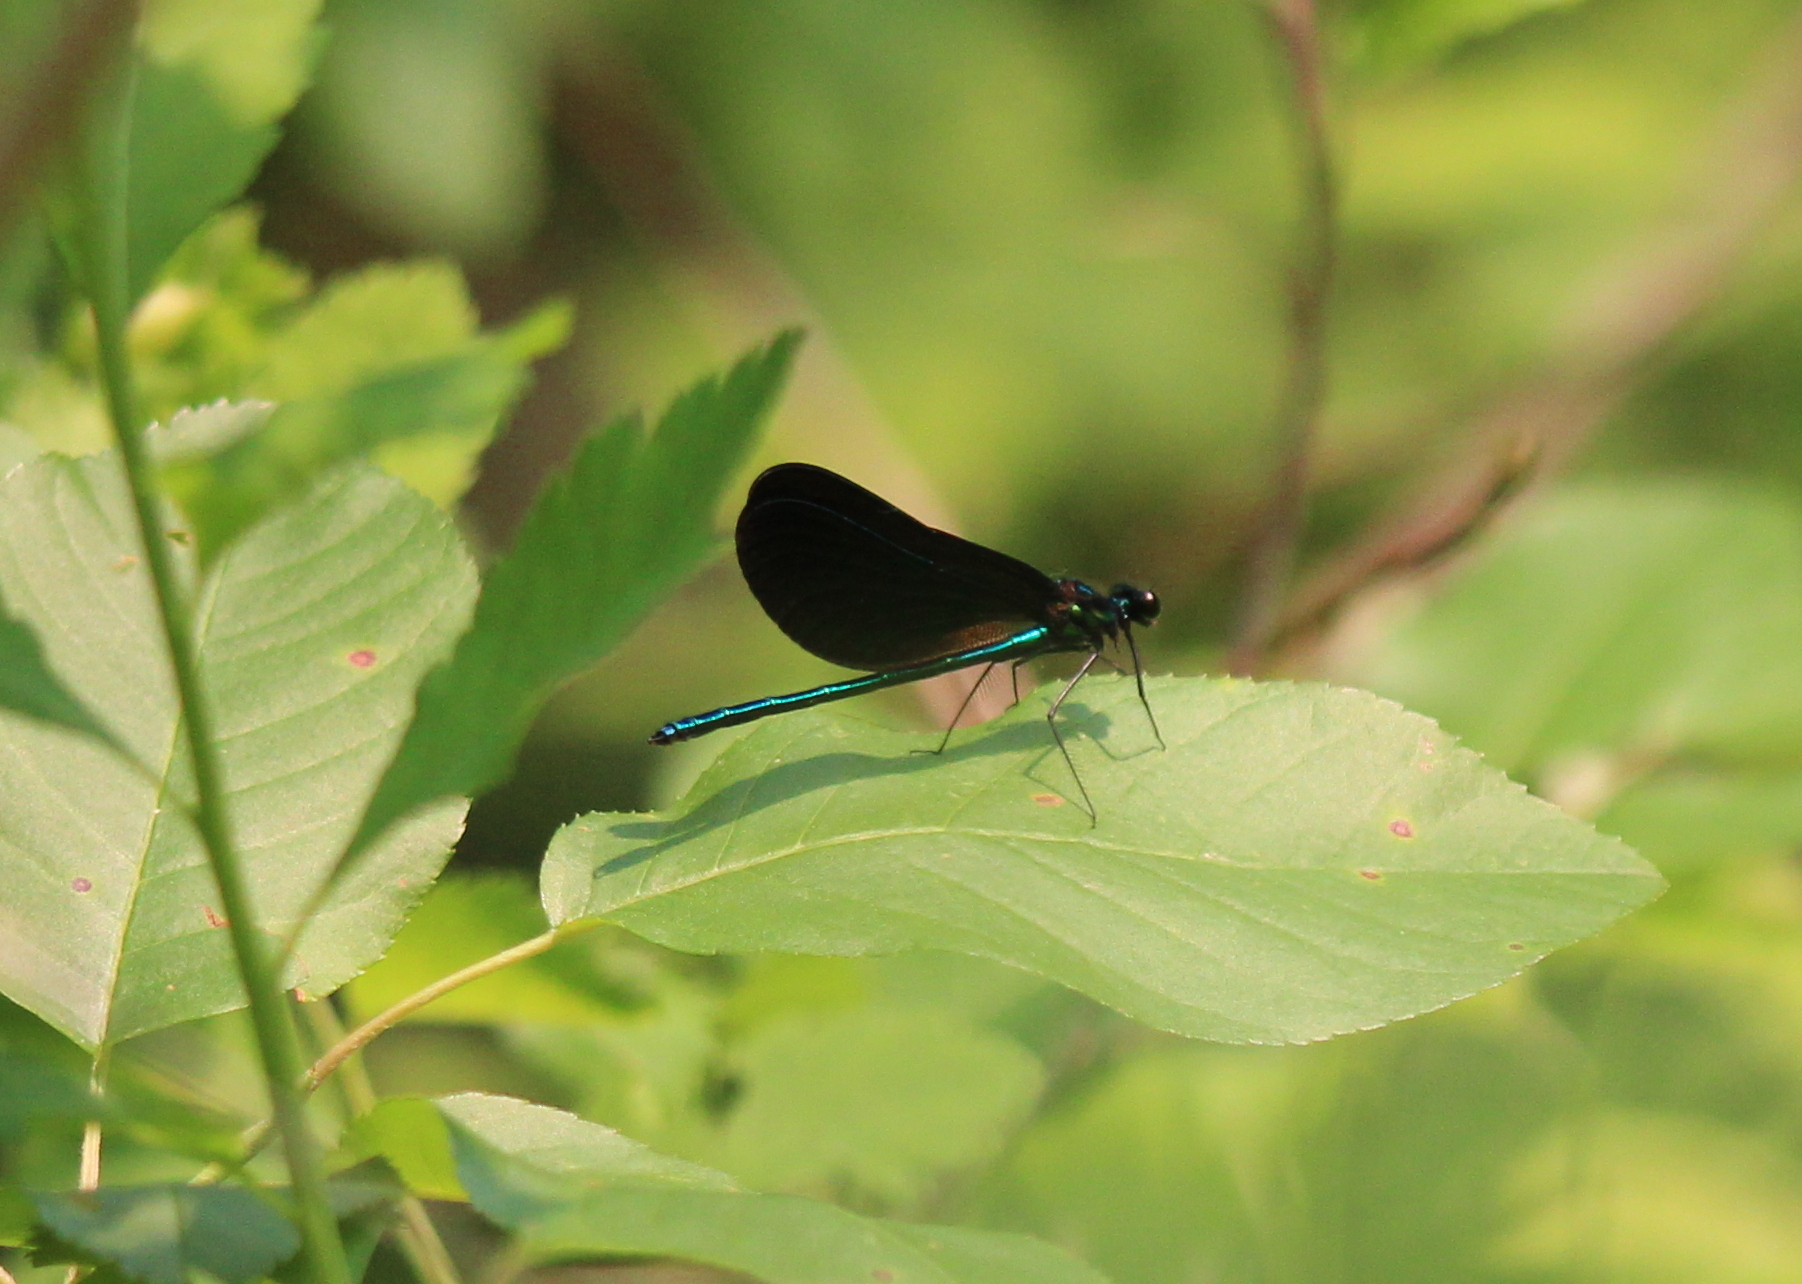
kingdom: Animalia
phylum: Arthropoda
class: Insecta
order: Odonata
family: Calopterygidae
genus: Calopteryx
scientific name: Calopteryx maculata
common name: Ebony jewelwing
